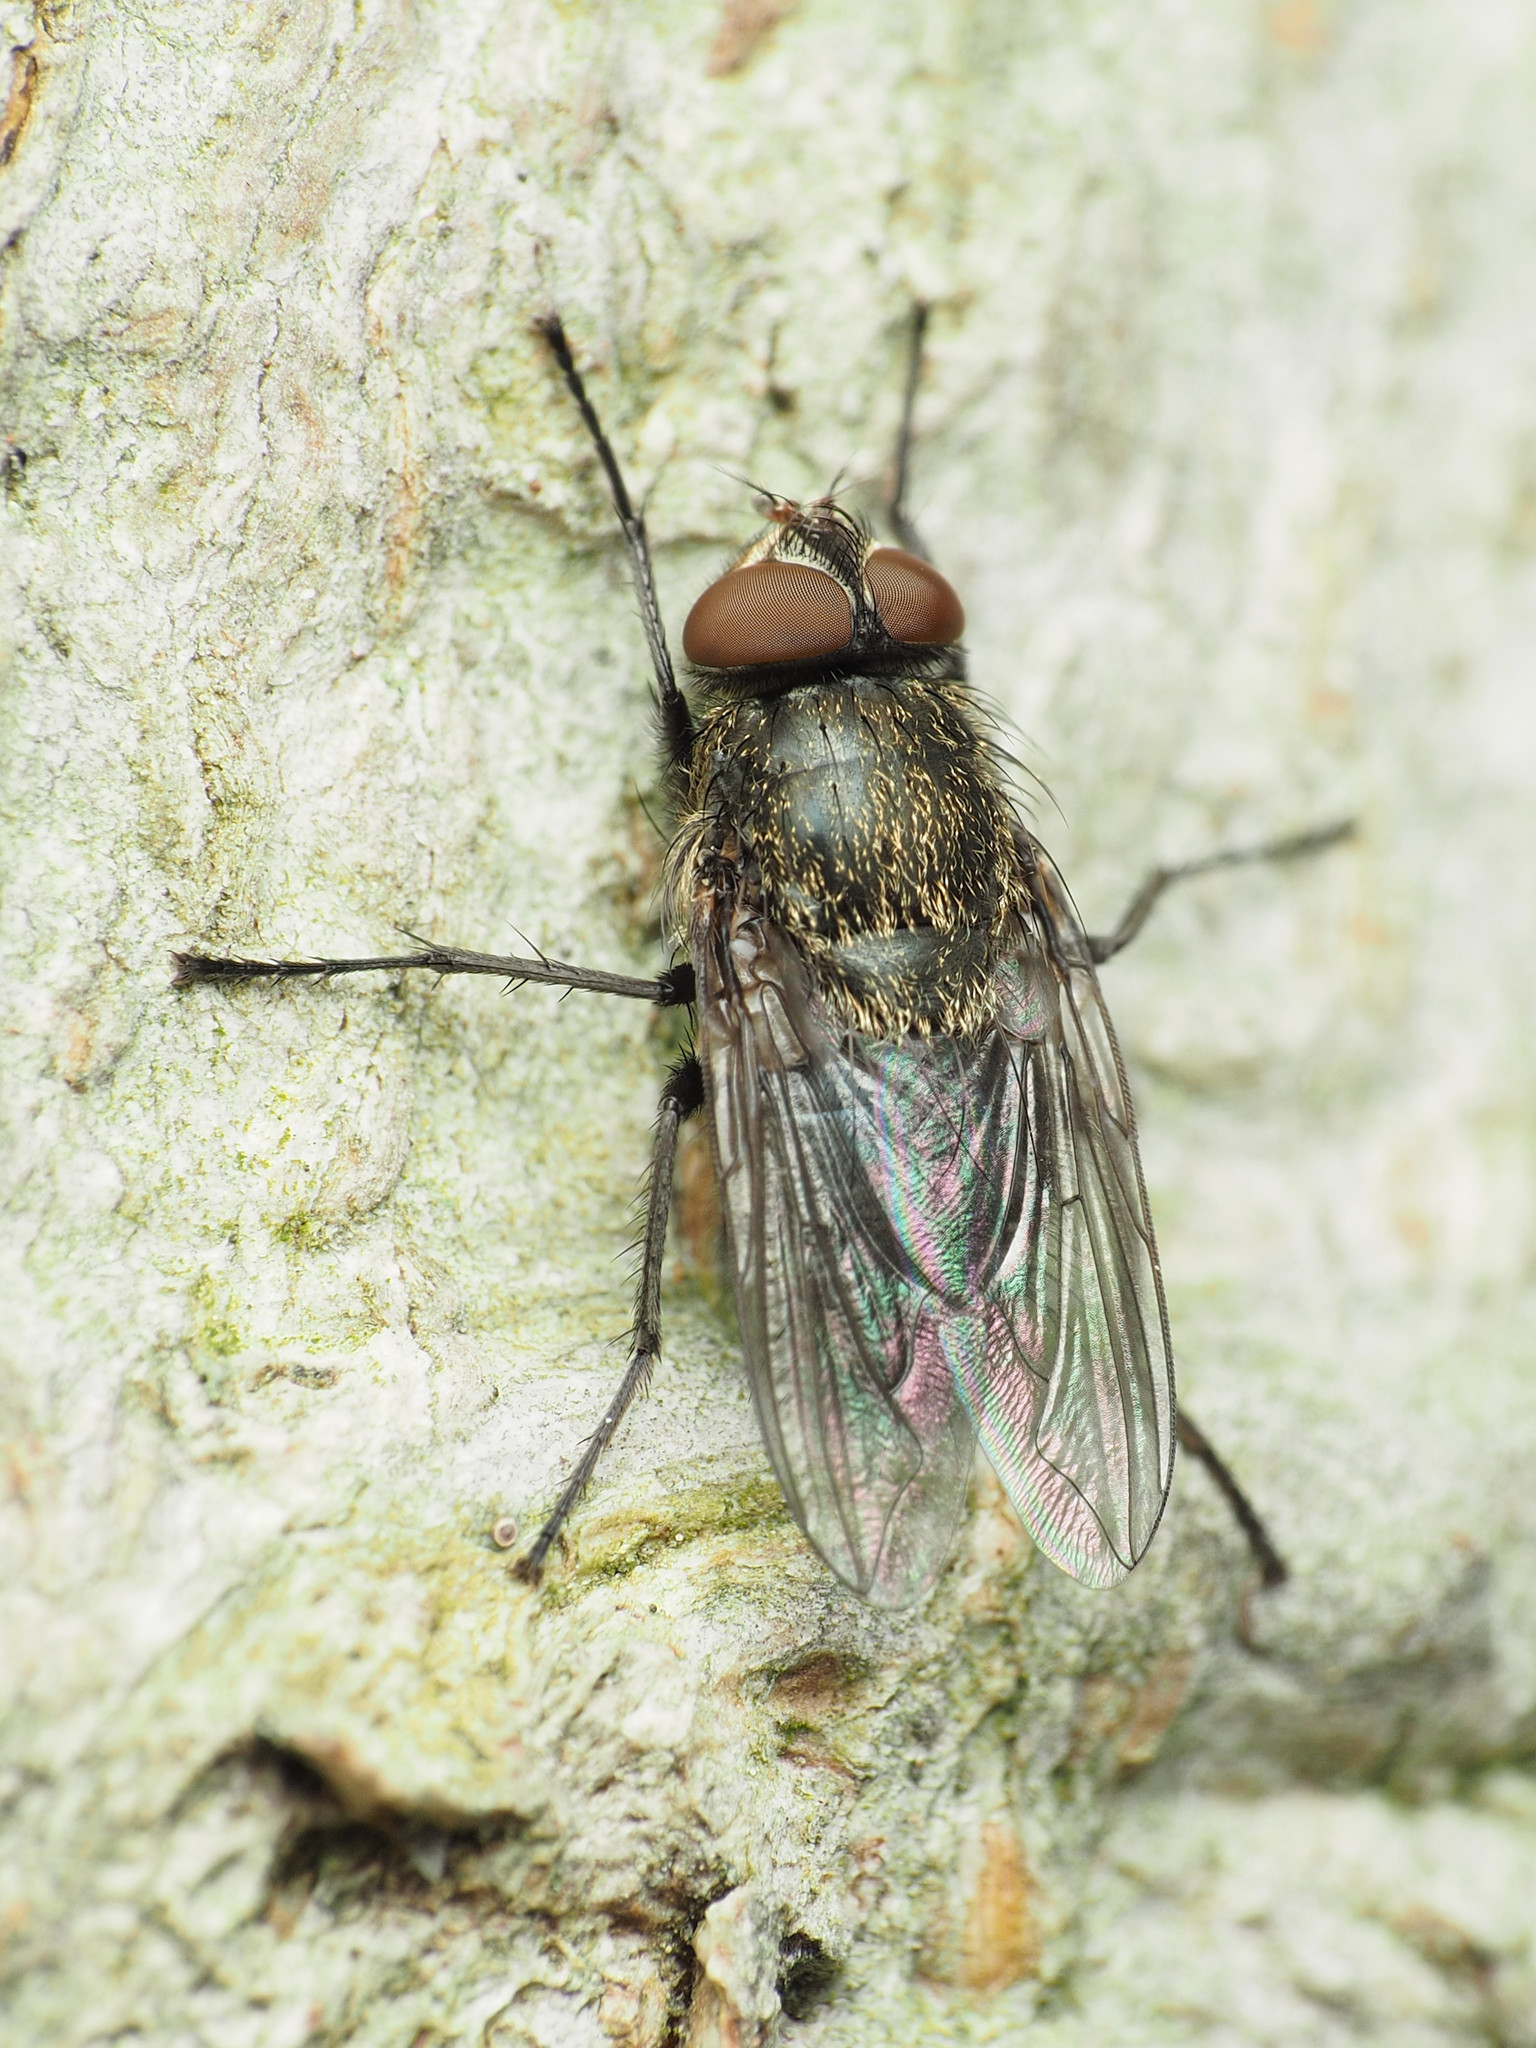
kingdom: Animalia
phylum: Arthropoda
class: Insecta
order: Diptera
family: Polleniidae
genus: Pollenia
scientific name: Pollenia
